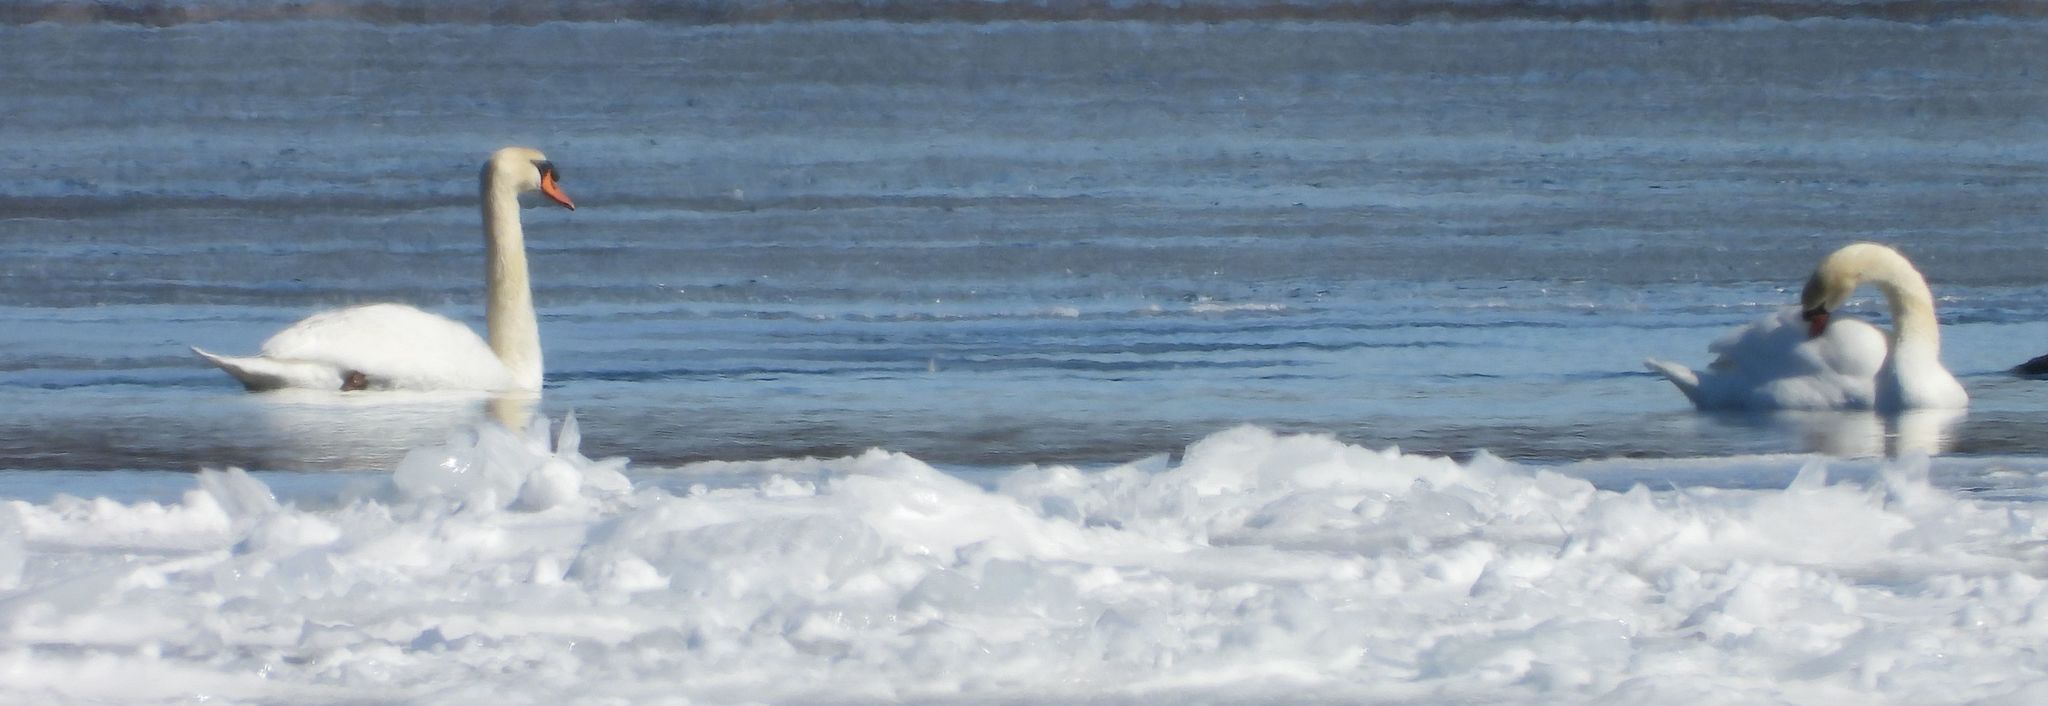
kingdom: Animalia
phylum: Chordata
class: Aves
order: Anseriformes
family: Anatidae
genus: Cygnus
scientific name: Cygnus olor
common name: Mute swan
